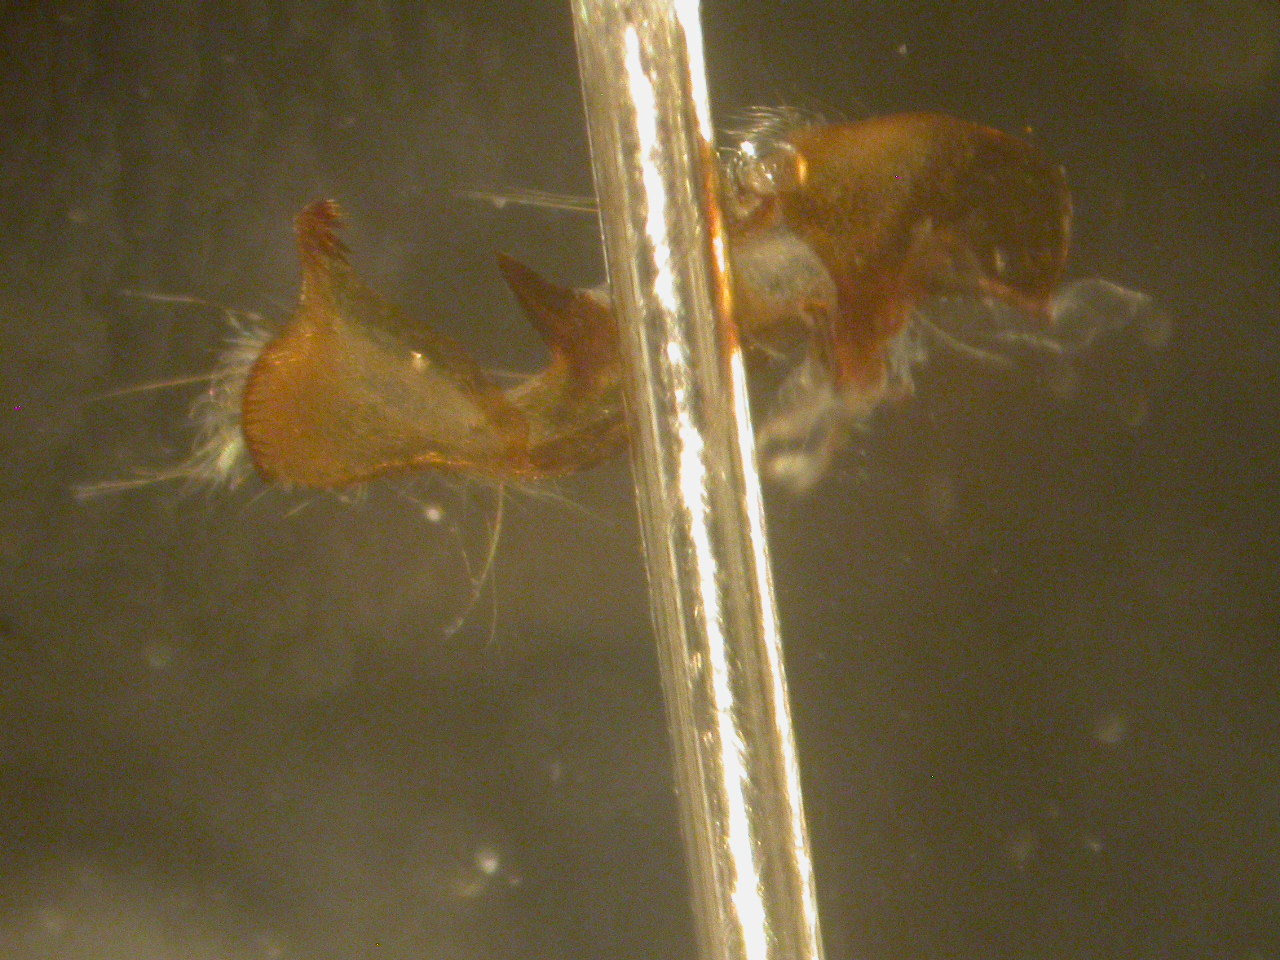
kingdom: Animalia
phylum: Arthropoda
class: Insecta
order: Lepidoptera
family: Noctuidae
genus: Oligia
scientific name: Oligia latruncula
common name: Tawny marbled minor
